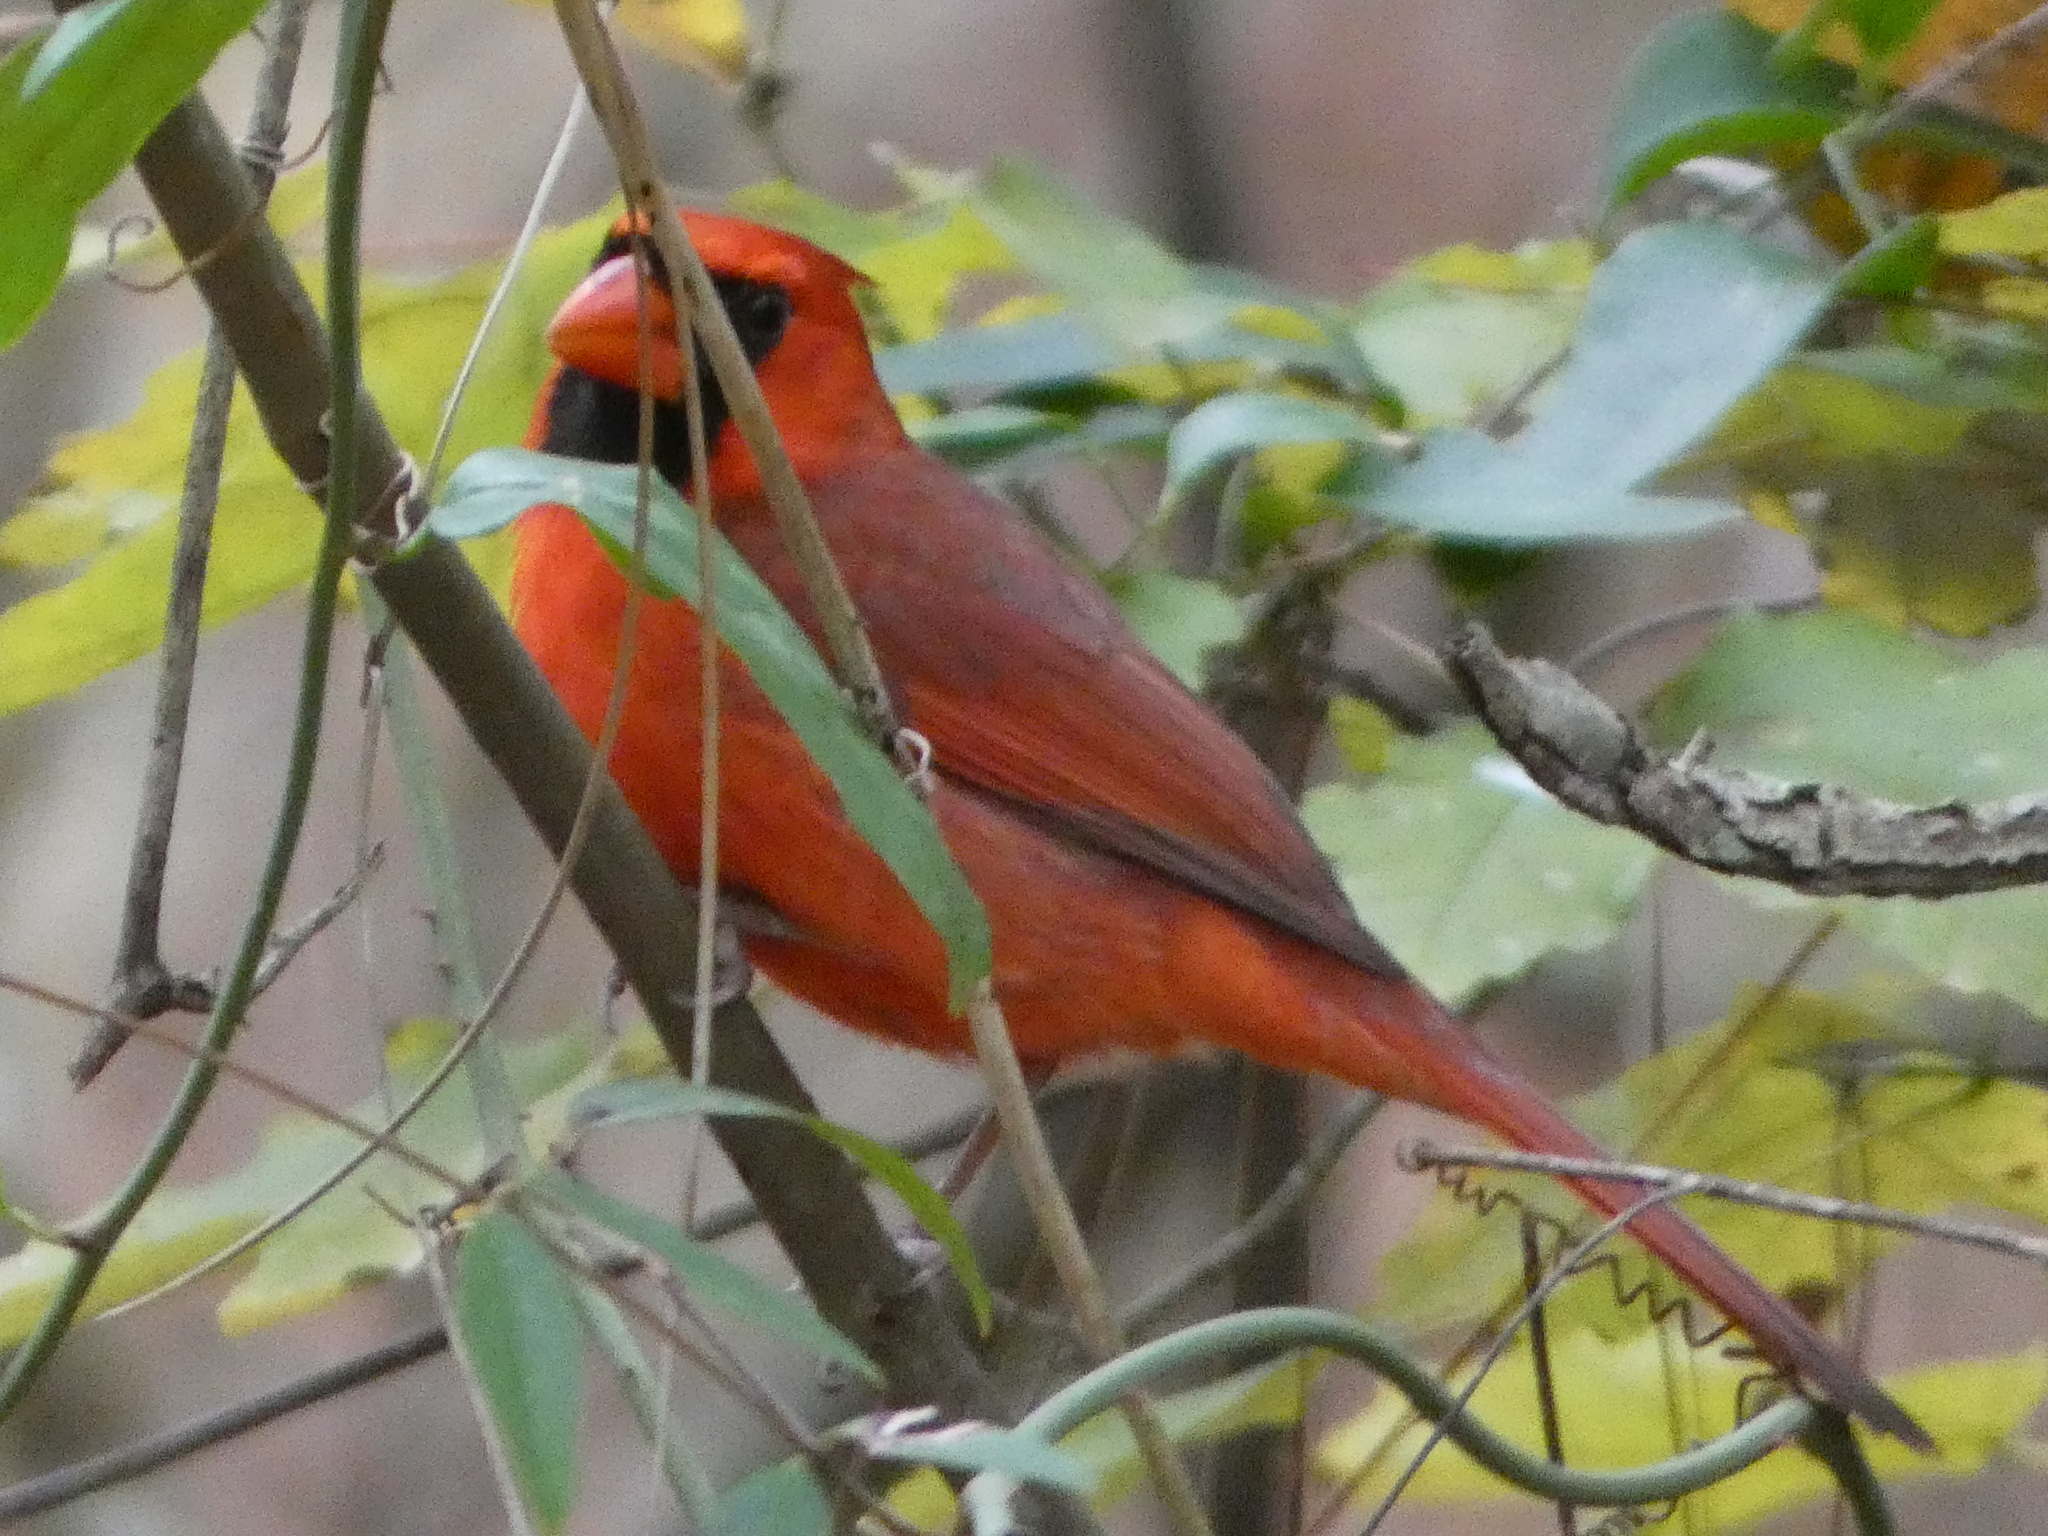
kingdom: Animalia
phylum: Chordata
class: Aves
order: Passeriformes
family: Cardinalidae
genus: Cardinalis
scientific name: Cardinalis cardinalis
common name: Northern cardinal
